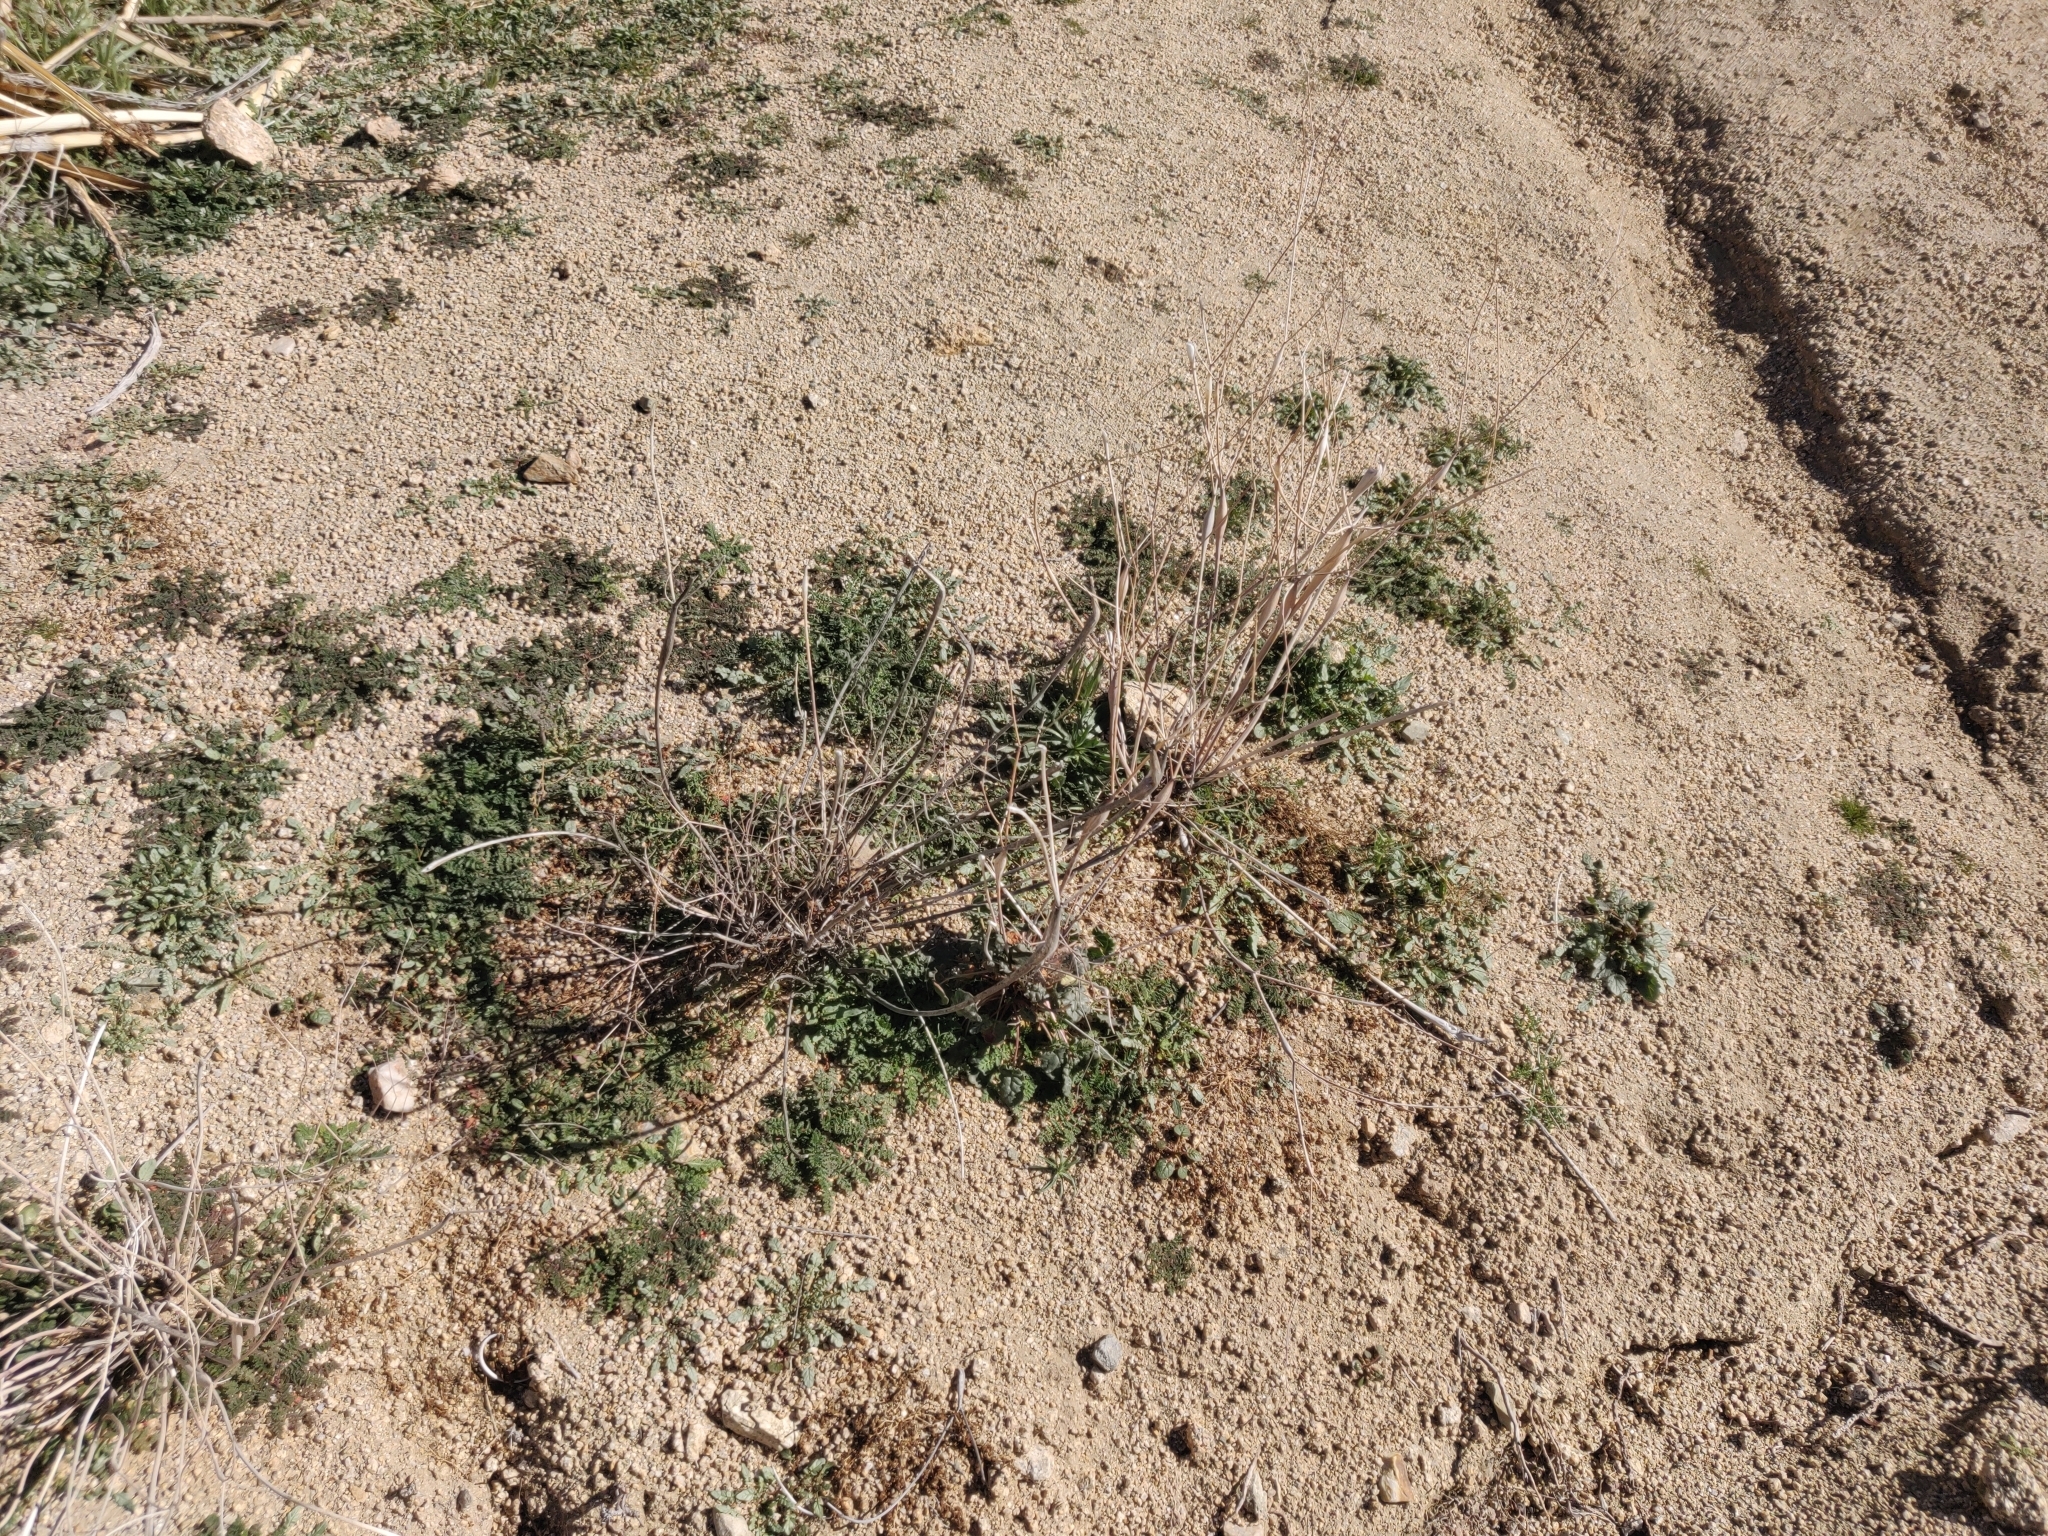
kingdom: Plantae
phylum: Tracheophyta
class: Magnoliopsida
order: Caryophyllales
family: Polygonaceae
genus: Eriogonum
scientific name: Eriogonum inflatum
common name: Desert trumpet
